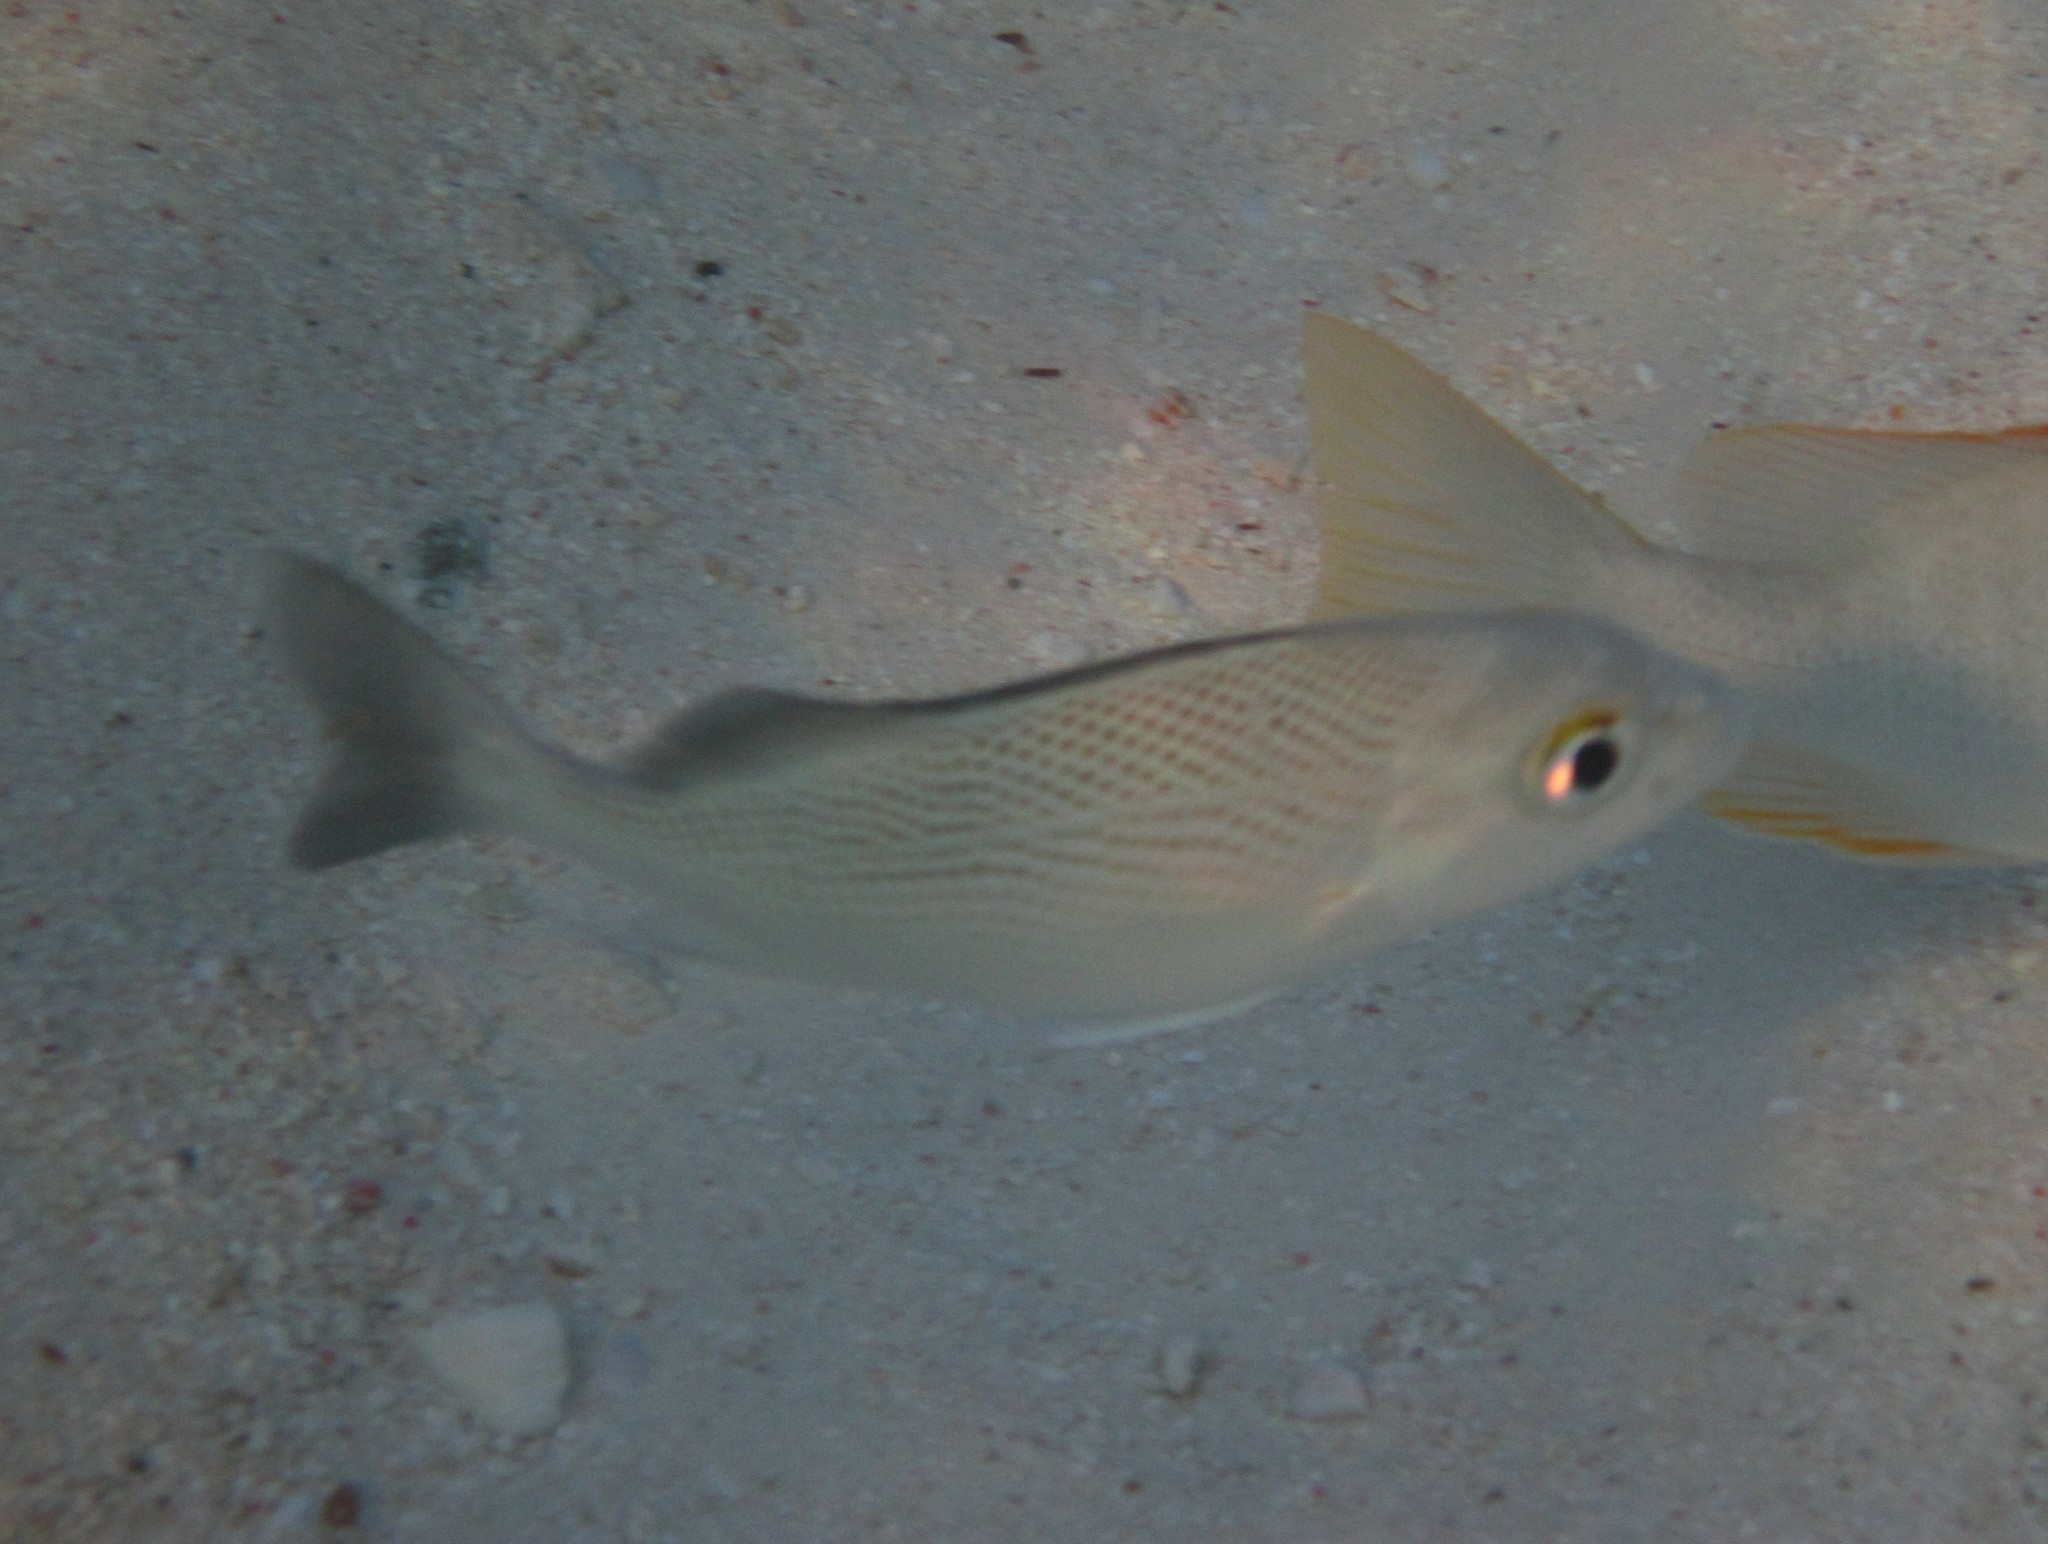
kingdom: Animalia
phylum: Chordata
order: Perciformes
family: Haemulidae
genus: Haemulon
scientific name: Haemulon parra
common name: Sailor's choice
